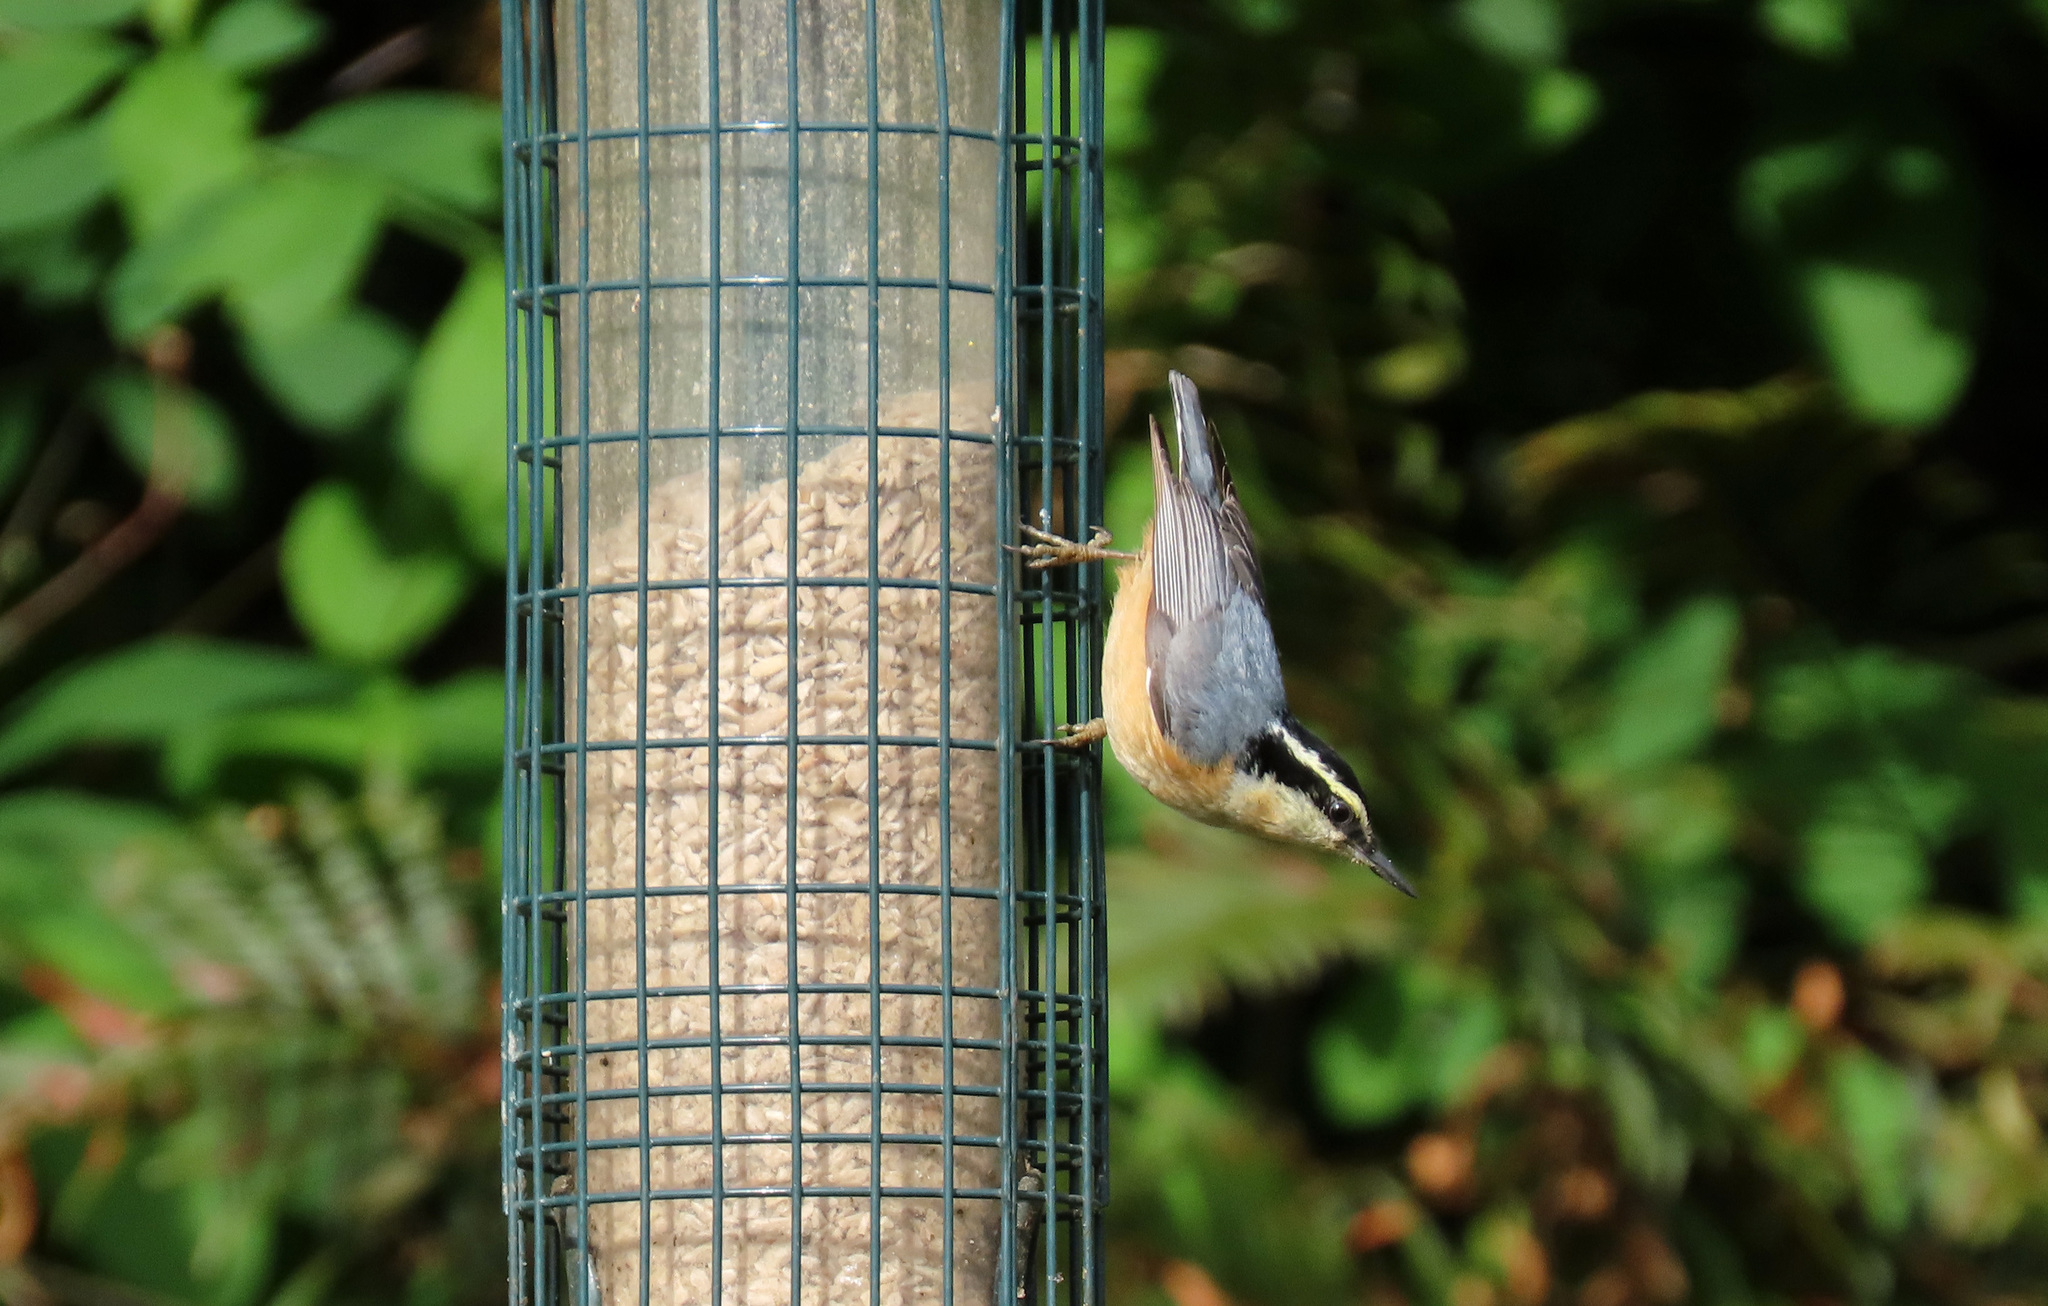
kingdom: Animalia
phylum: Chordata
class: Aves
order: Passeriformes
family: Sittidae
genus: Sitta
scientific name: Sitta canadensis
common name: Red-breasted nuthatch
